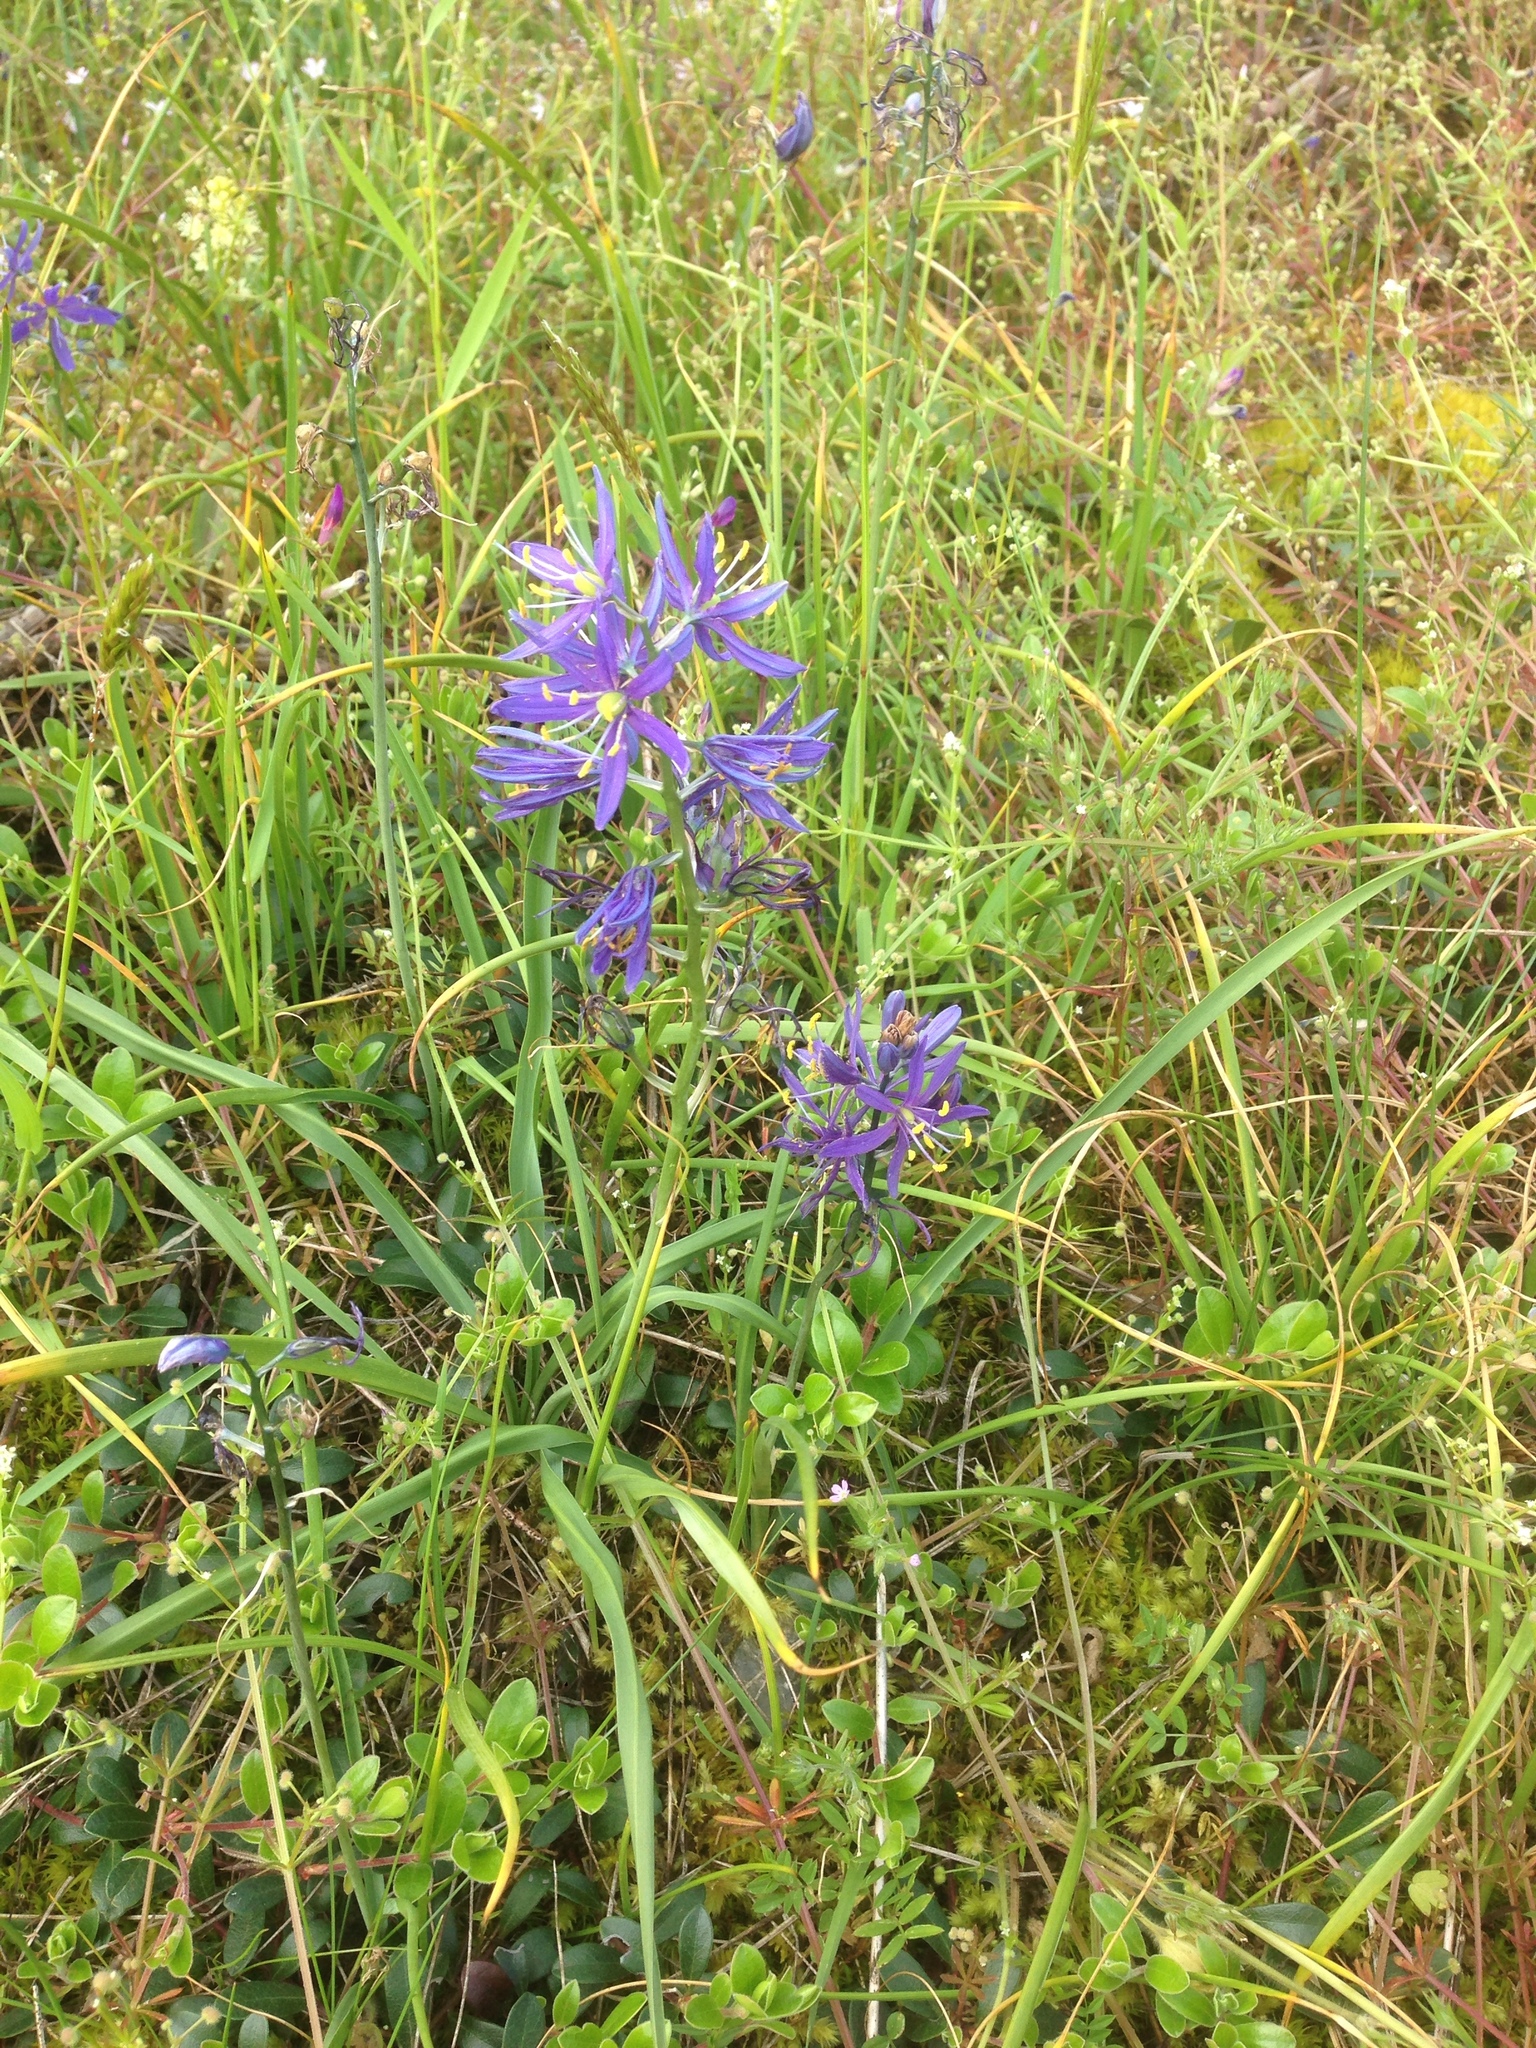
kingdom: Plantae
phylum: Tracheophyta
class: Liliopsida
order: Asparagales
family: Asparagaceae
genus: Camassia
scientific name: Camassia quamash
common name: Common camas
